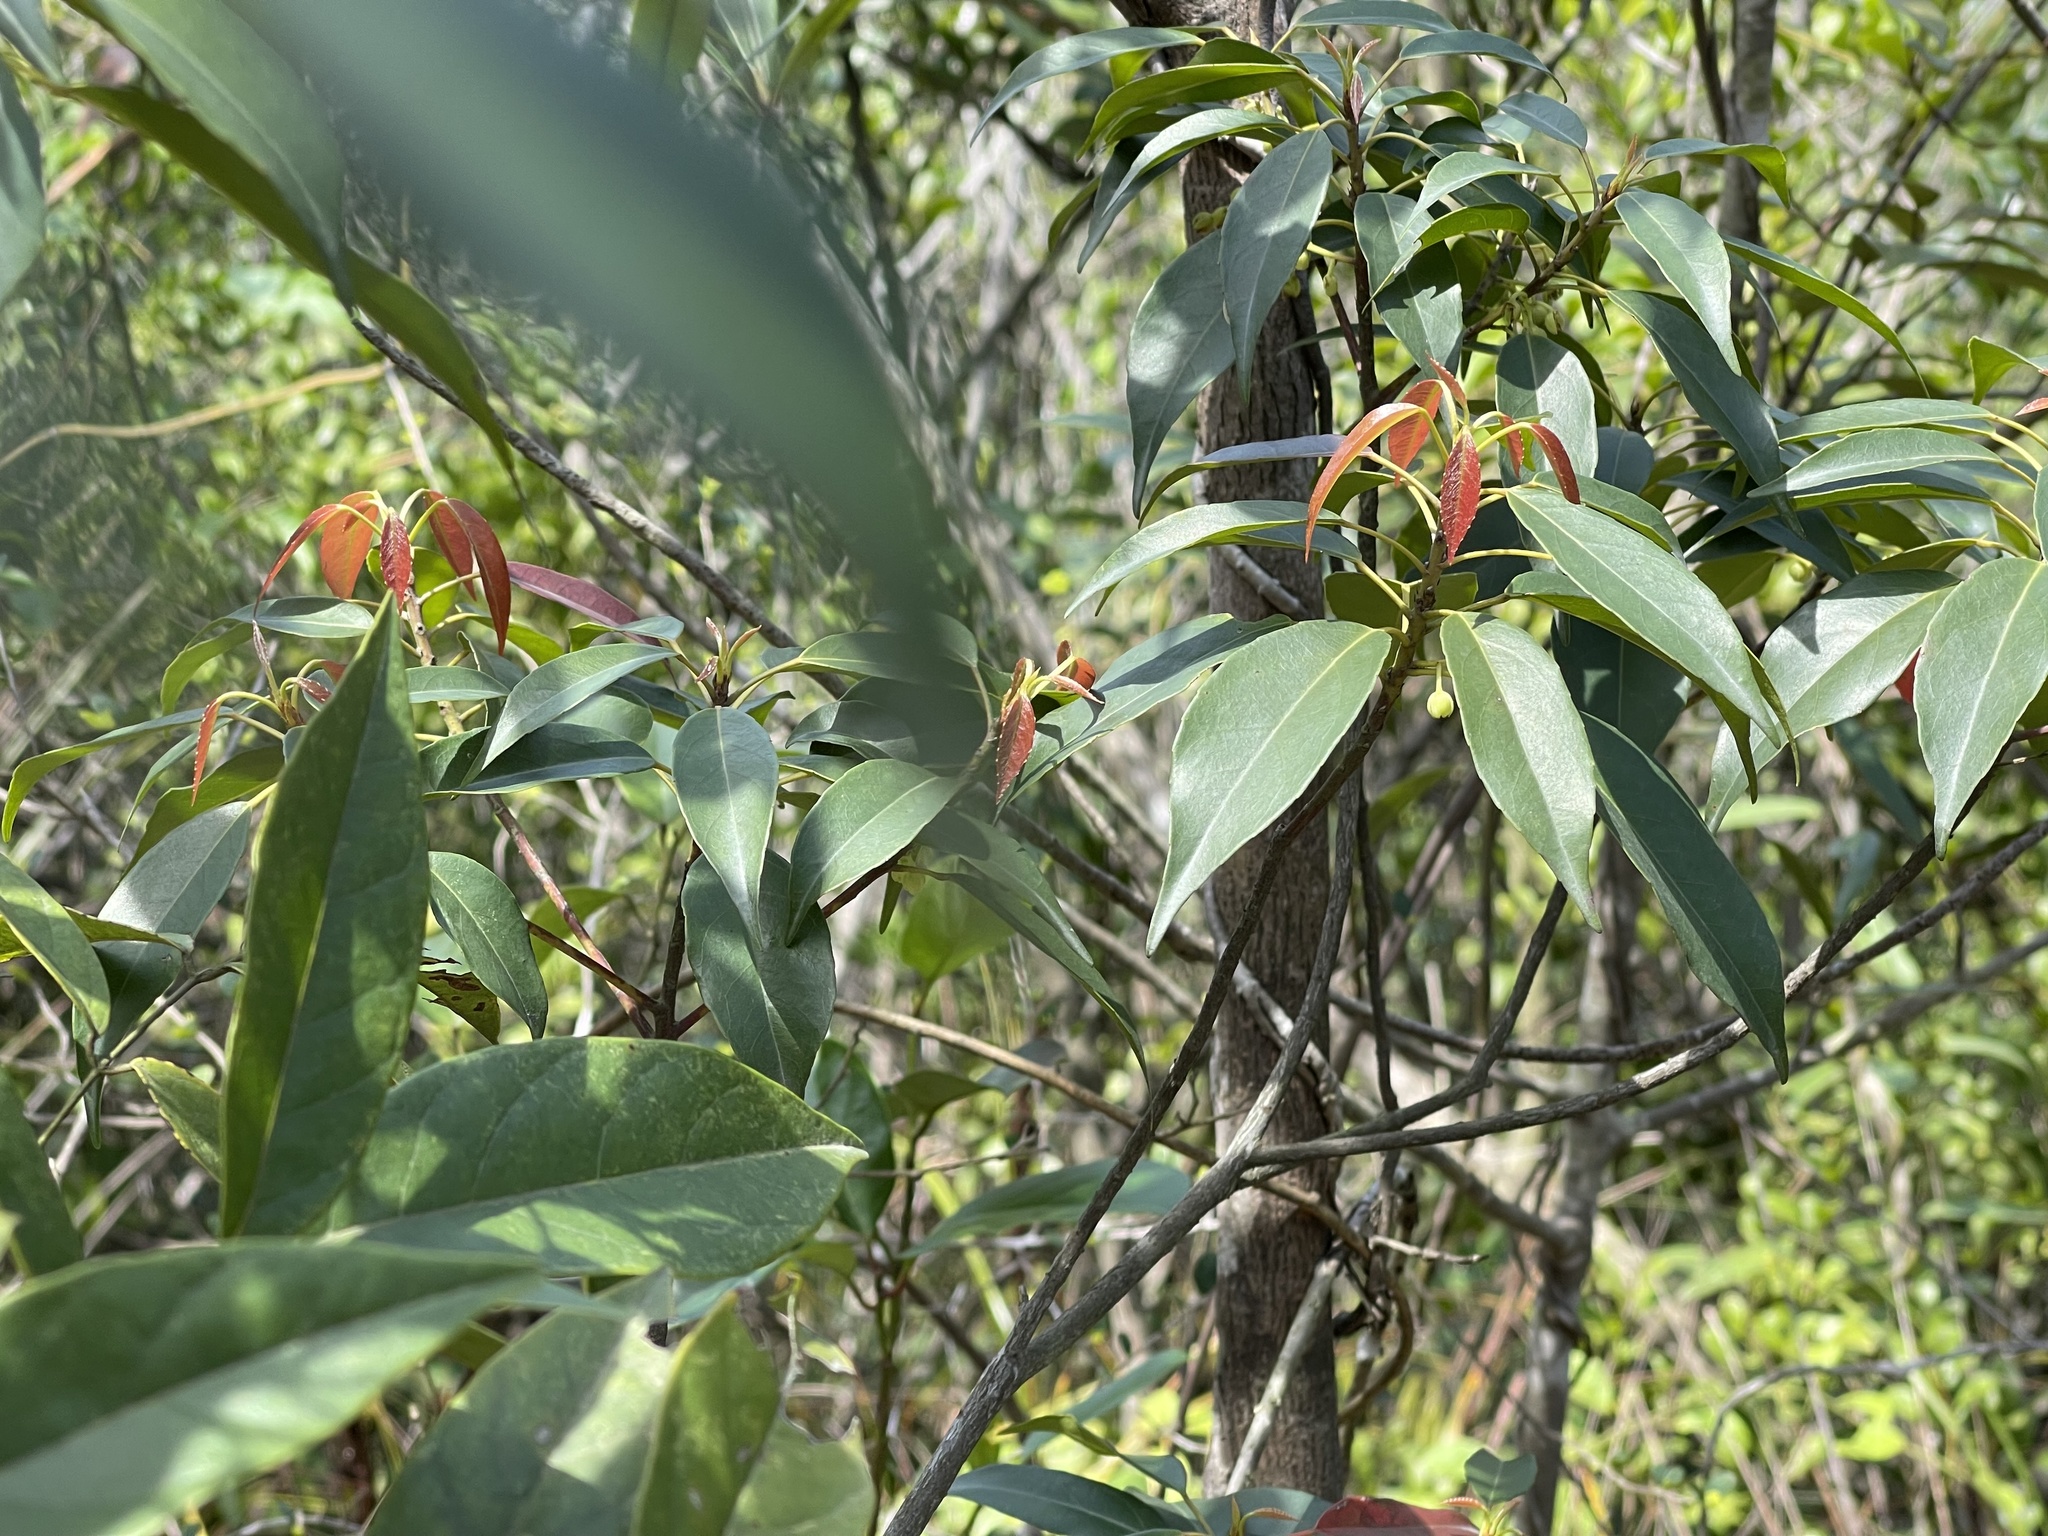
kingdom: Plantae
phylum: Tracheophyta
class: Magnoliopsida
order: Oxalidales
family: Elaeocarpaceae
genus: Elaeocarpus
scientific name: Elaeocarpus chinensis
